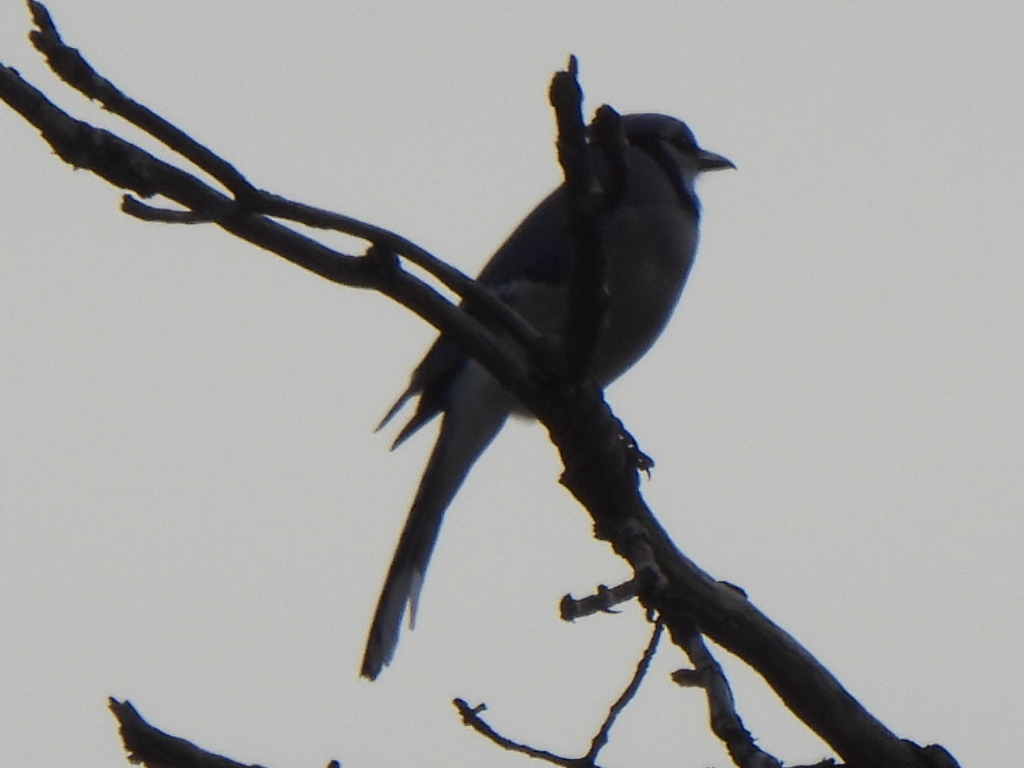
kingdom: Animalia
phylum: Chordata
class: Aves
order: Passeriformes
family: Corvidae
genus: Cyanocitta
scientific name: Cyanocitta cristata
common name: Blue jay
